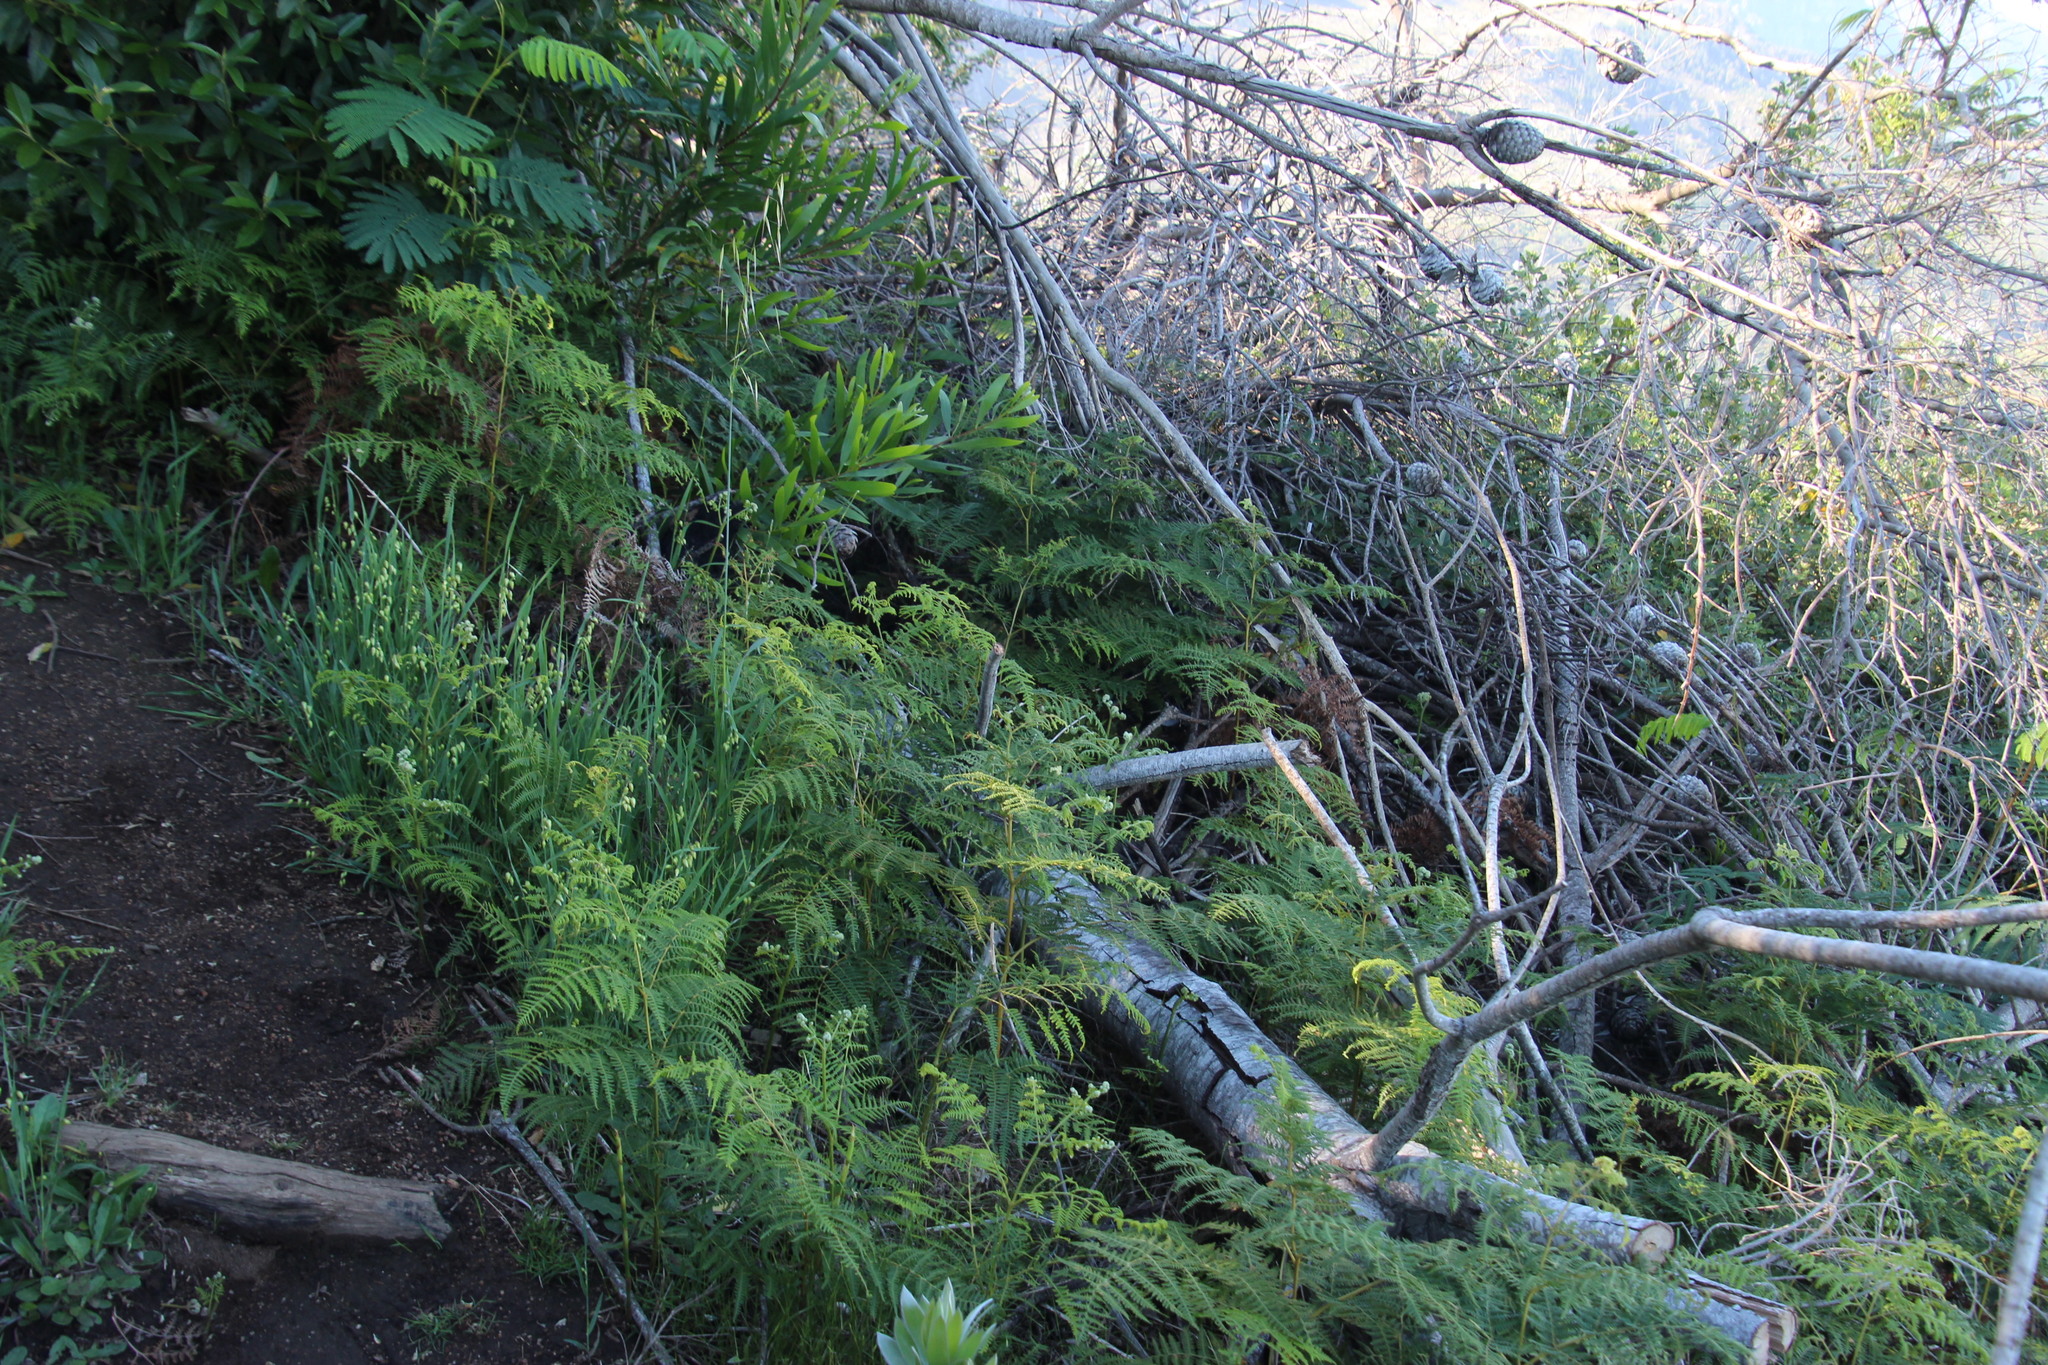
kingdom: Plantae
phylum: Tracheophyta
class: Polypodiopsida
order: Polypodiales
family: Dennstaedtiaceae
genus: Pteridium
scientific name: Pteridium aquilinum
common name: Bracken
